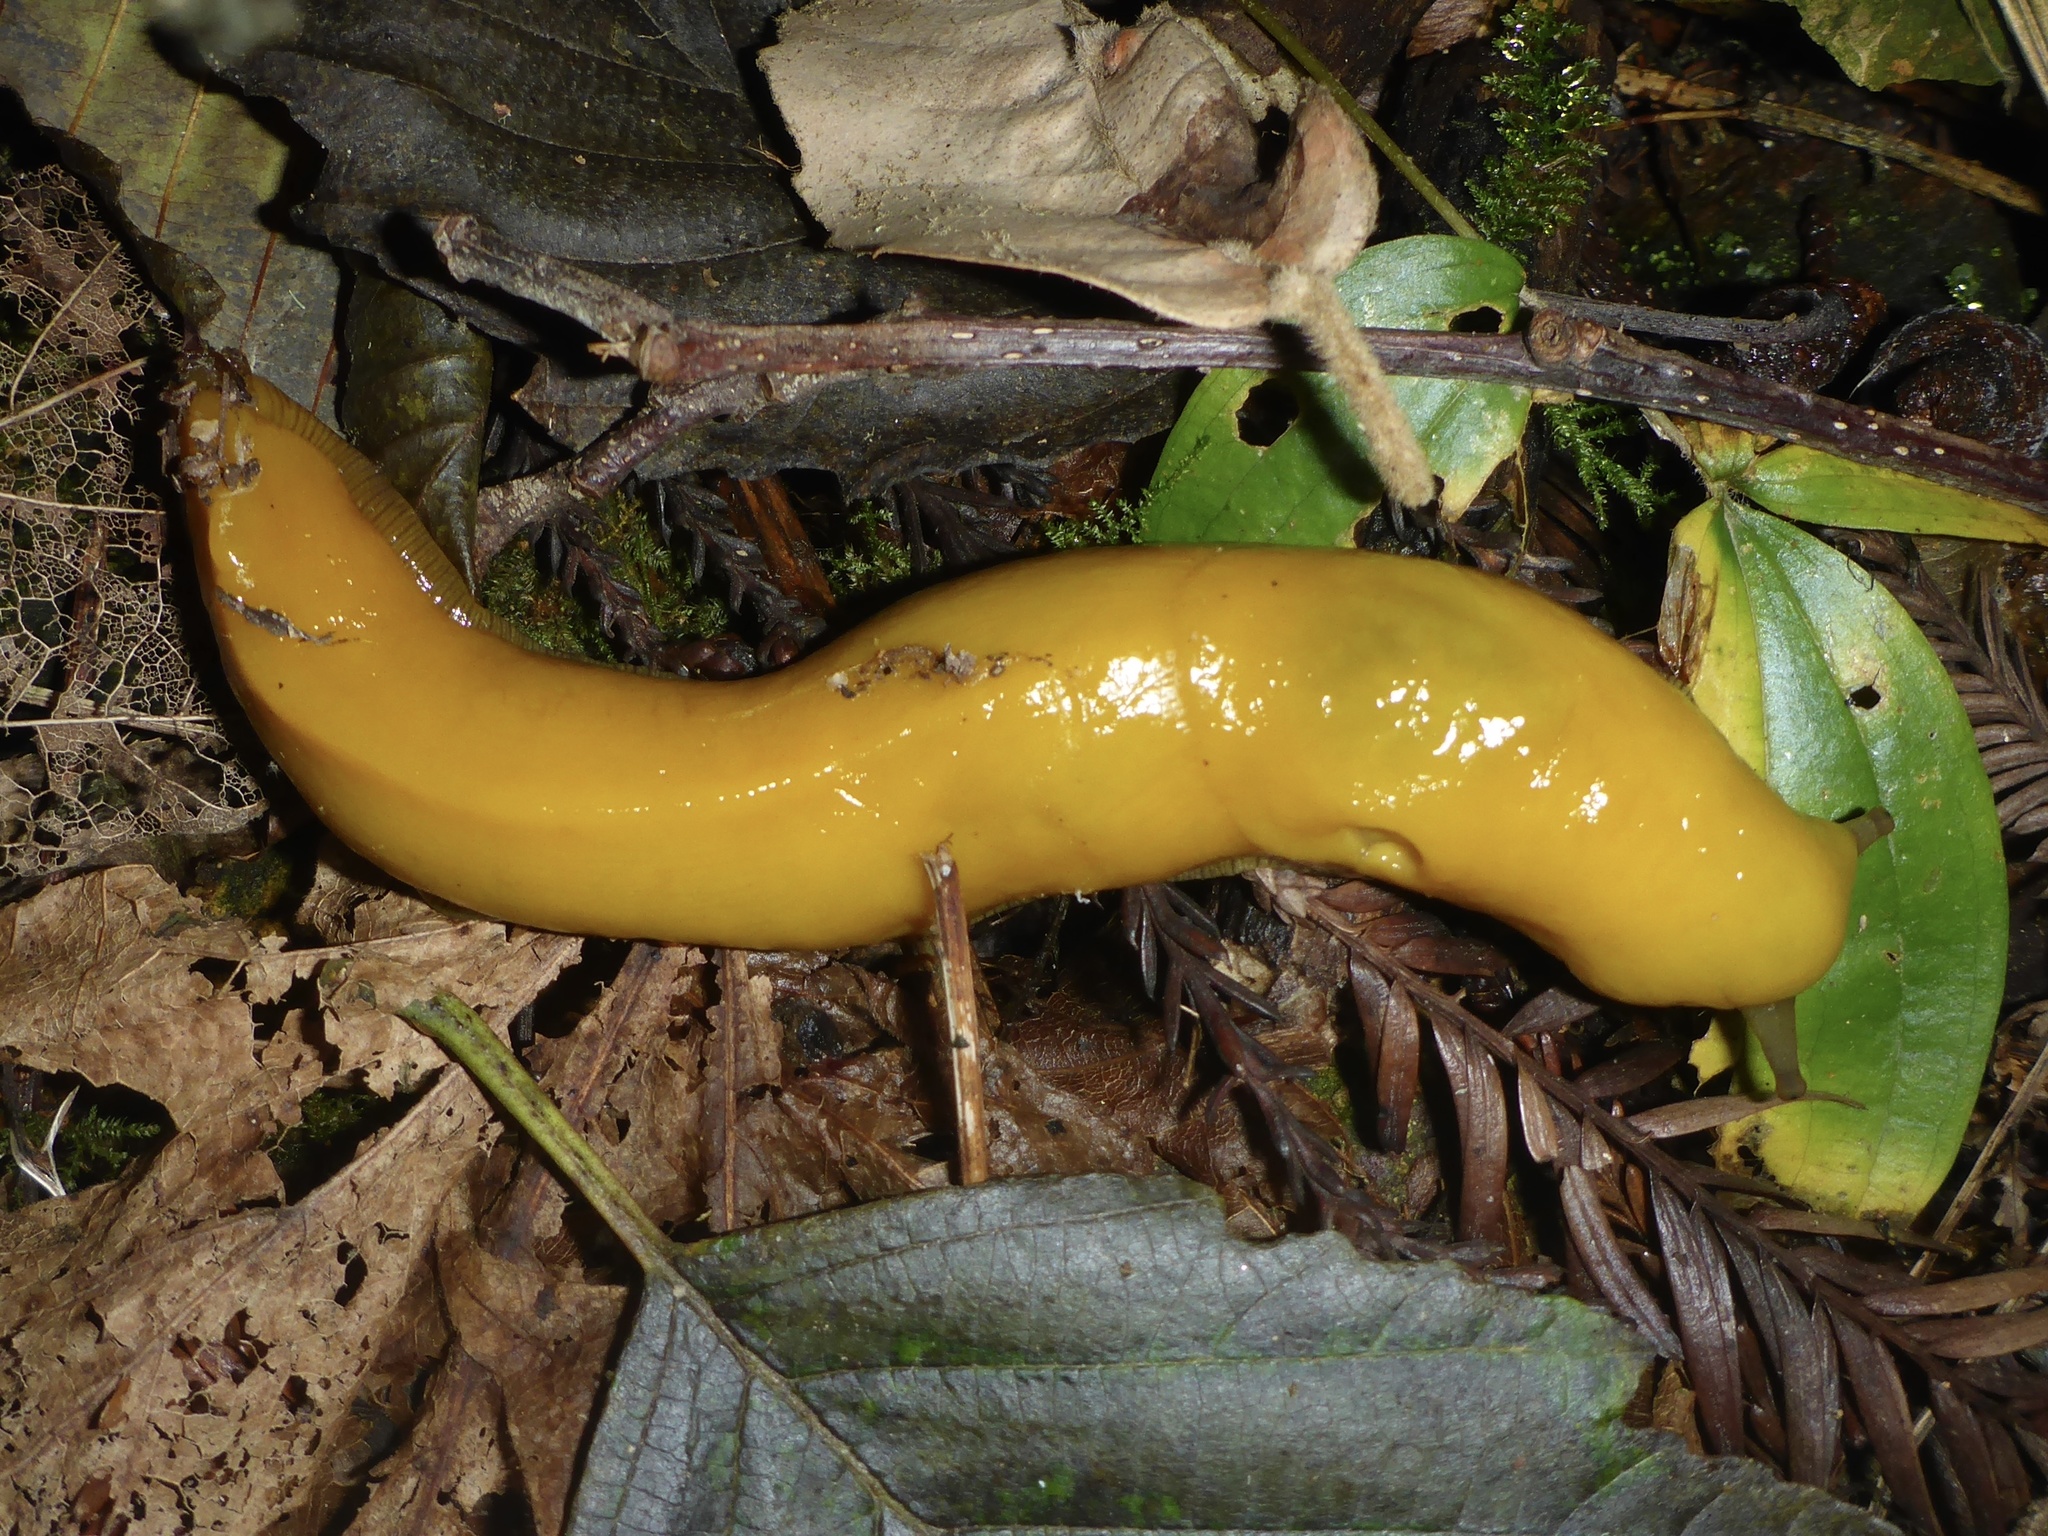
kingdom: Animalia
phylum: Mollusca
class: Gastropoda
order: Stylommatophora
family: Ariolimacidae
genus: Ariolimax
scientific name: Ariolimax californicus
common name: California banana slug
